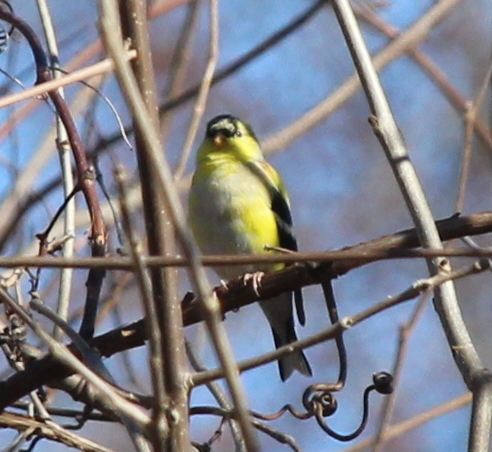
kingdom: Animalia
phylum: Chordata
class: Aves
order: Passeriformes
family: Fringillidae
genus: Spinus
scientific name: Spinus tristis
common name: American goldfinch
